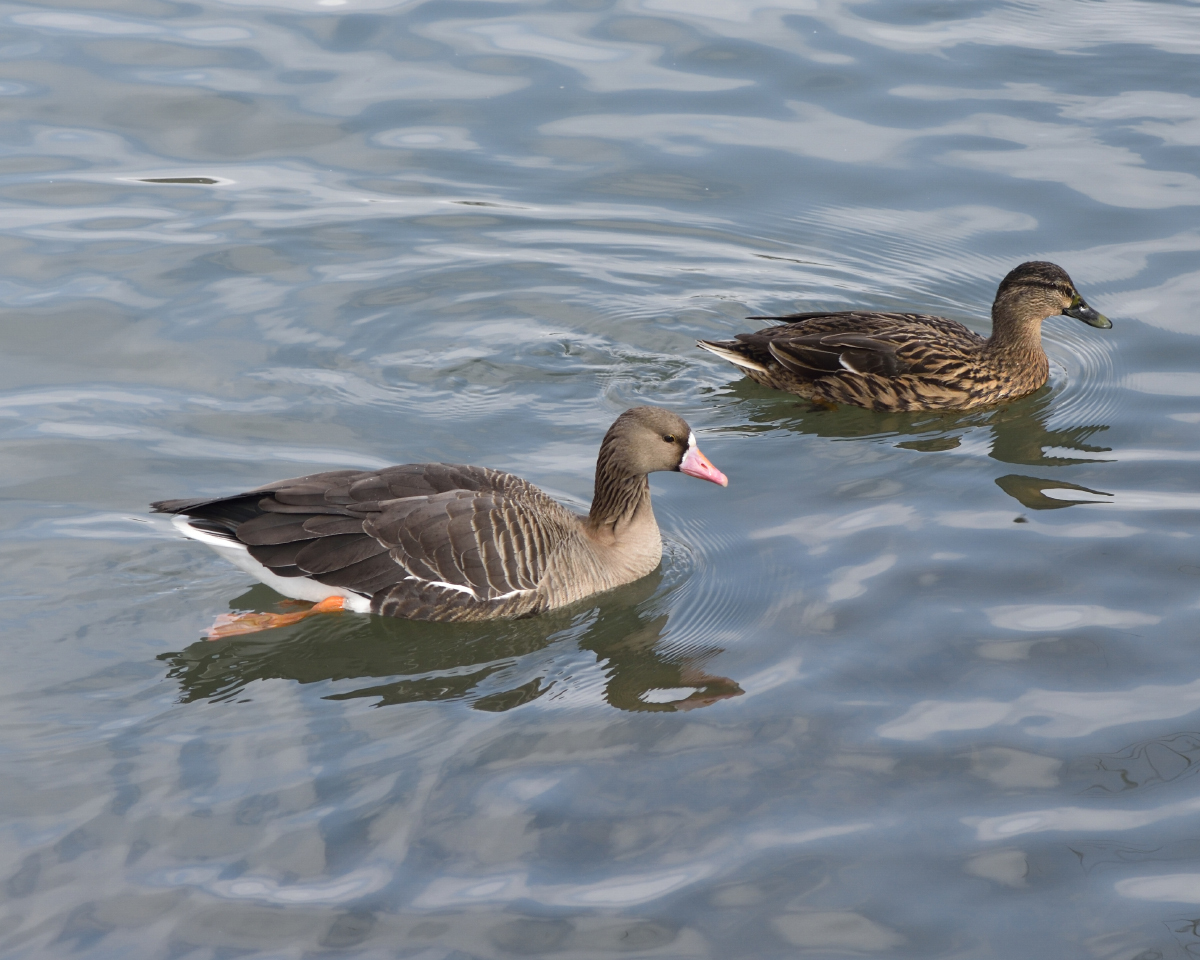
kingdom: Animalia
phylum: Chordata
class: Aves
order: Anseriformes
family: Anatidae
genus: Anser
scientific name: Anser albifrons
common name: Greater white-fronted goose
